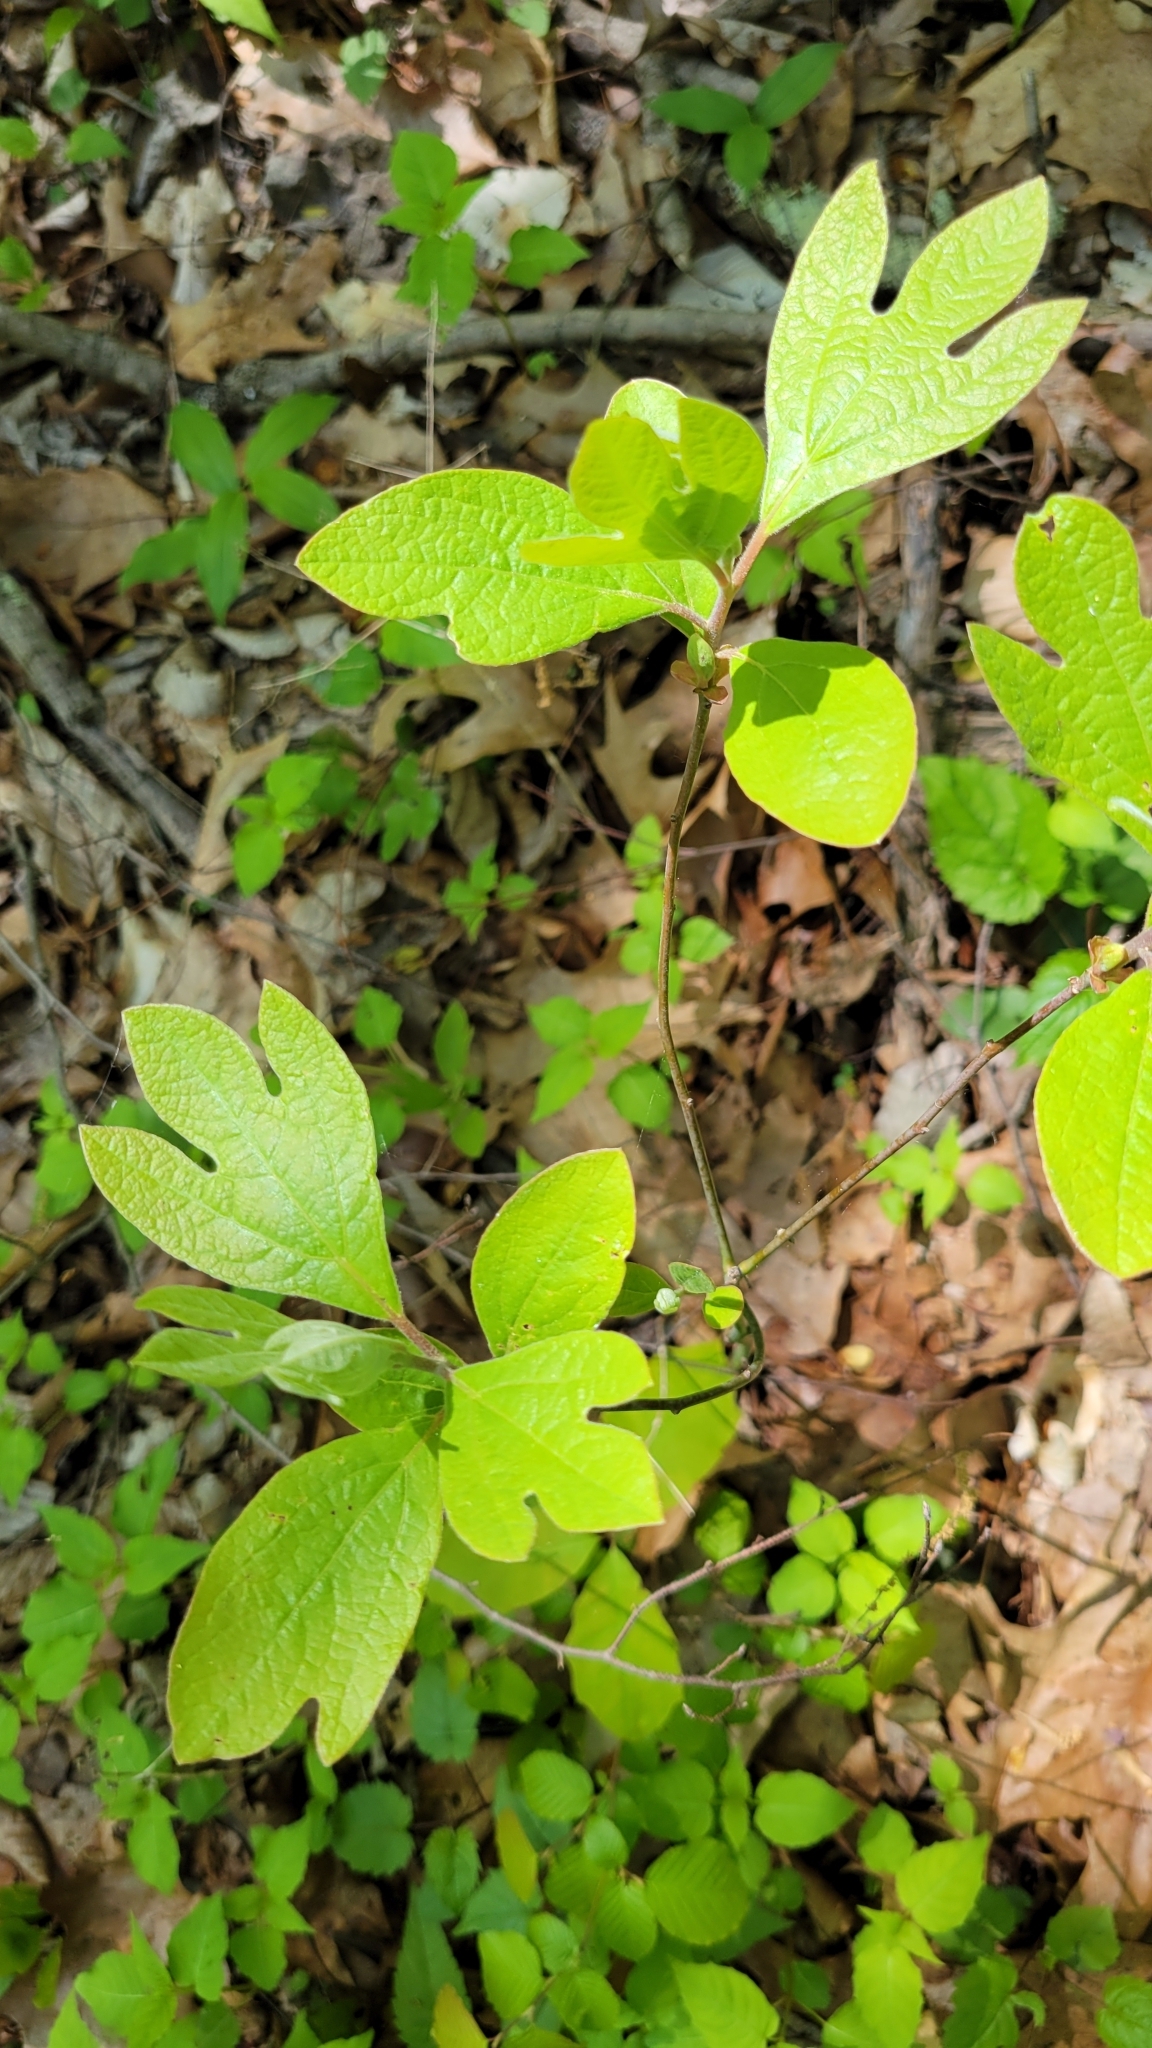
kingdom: Plantae
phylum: Tracheophyta
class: Magnoliopsida
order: Laurales
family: Lauraceae
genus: Sassafras
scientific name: Sassafras albidum
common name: Sassafras
